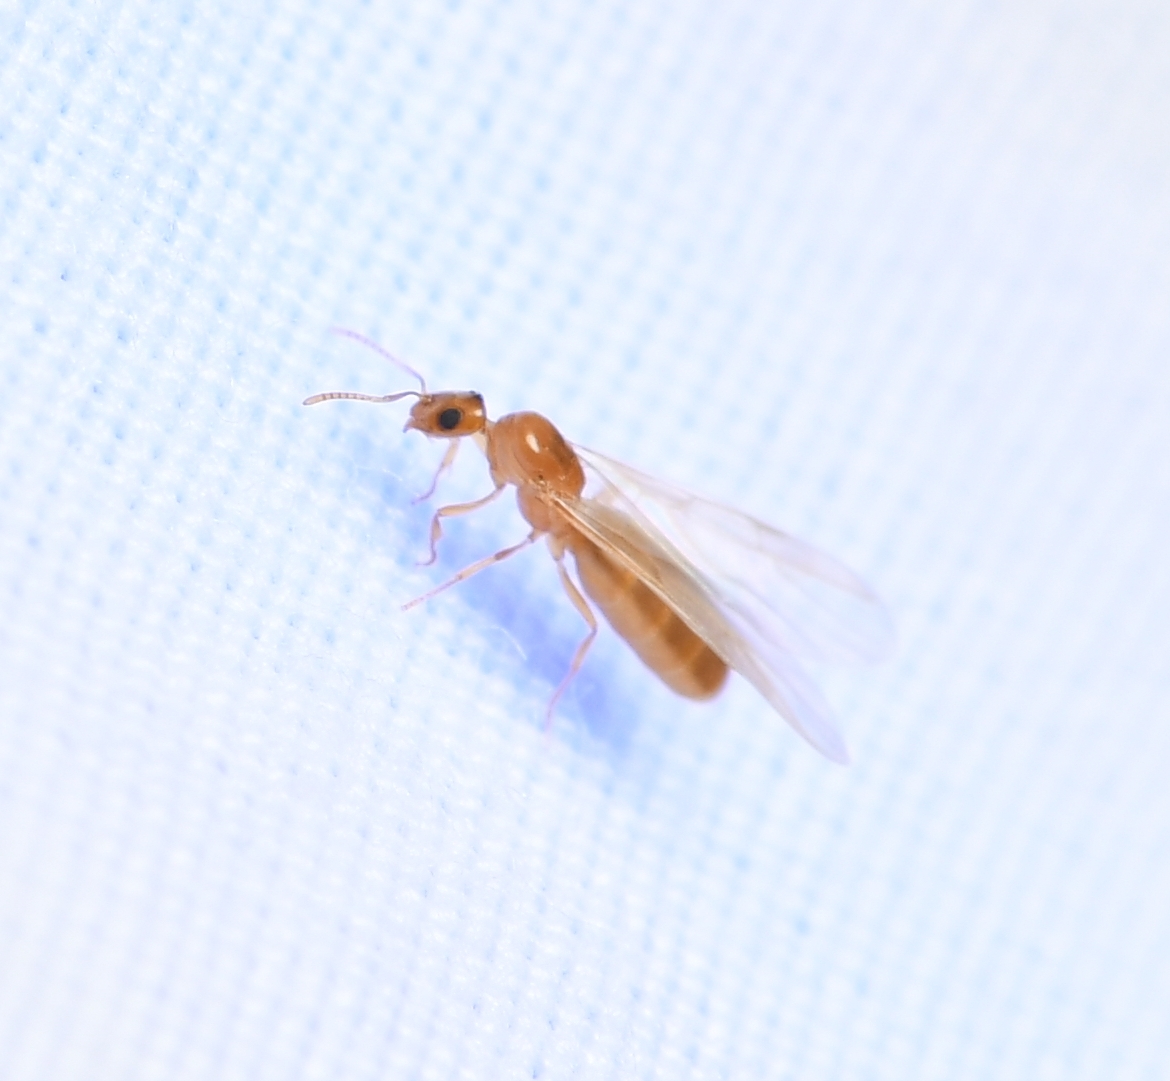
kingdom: Animalia
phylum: Arthropoda
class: Insecta
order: Hymenoptera
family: Formicidae
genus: Brachymyrmex
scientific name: Brachymyrmex depilis
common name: Hairless rover ant
